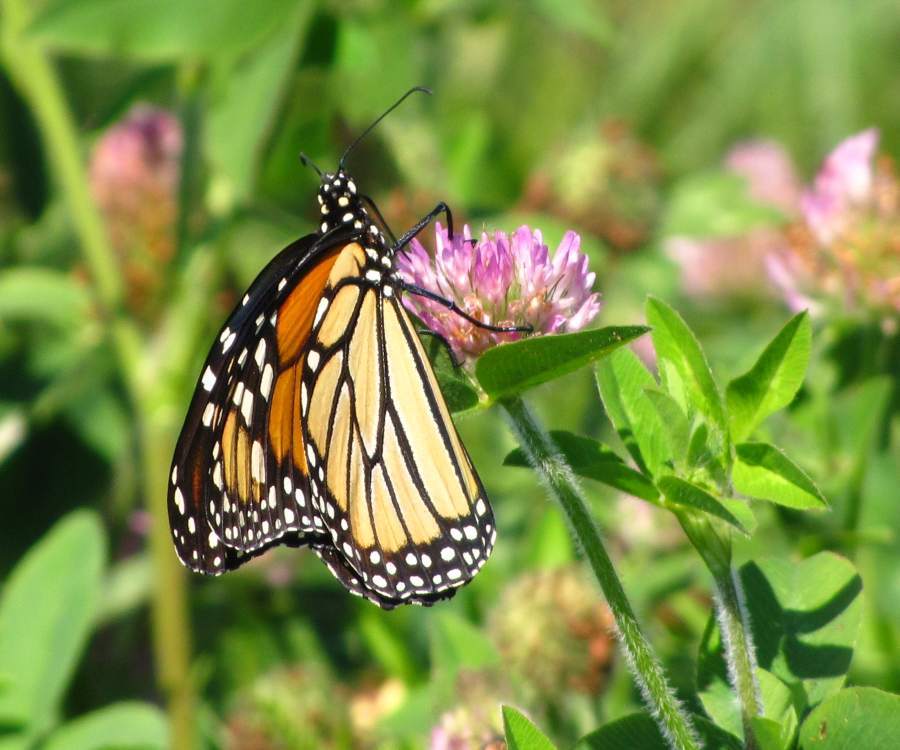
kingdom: Animalia
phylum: Arthropoda
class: Insecta
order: Lepidoptera
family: Nymphalidae
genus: Danaus
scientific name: Danaus plexippus
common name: Monarch
